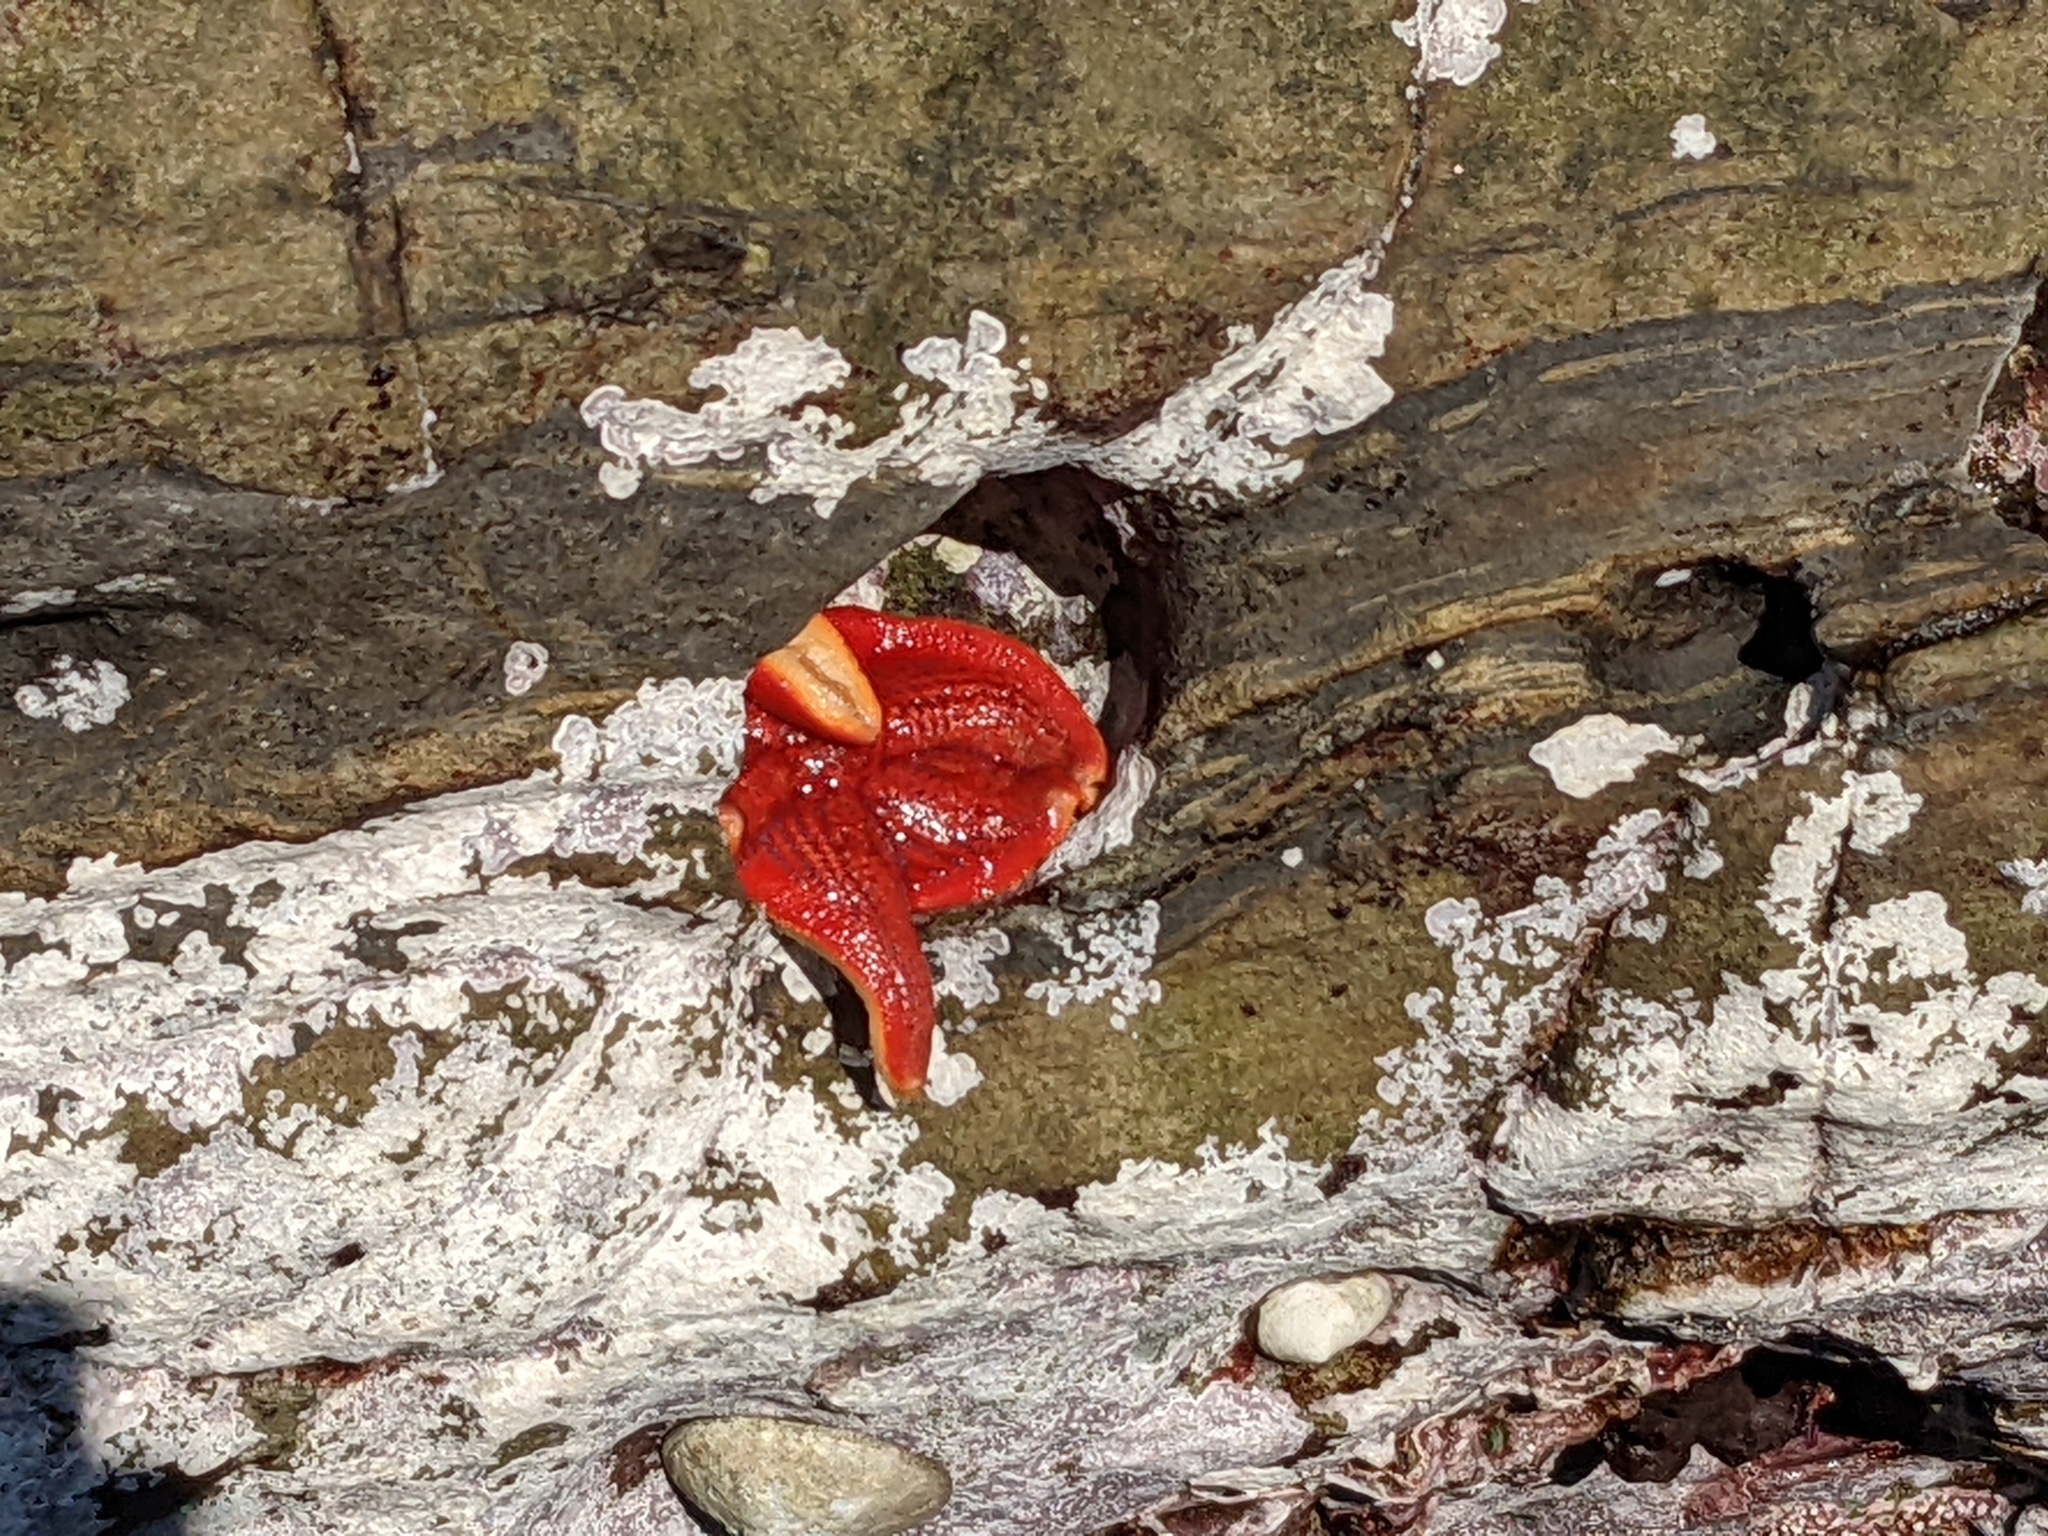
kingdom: Animalia
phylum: Echinodermata
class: Asteroidea
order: Valvatida
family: Asterinidae
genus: Patiria
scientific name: Patiria miniata
